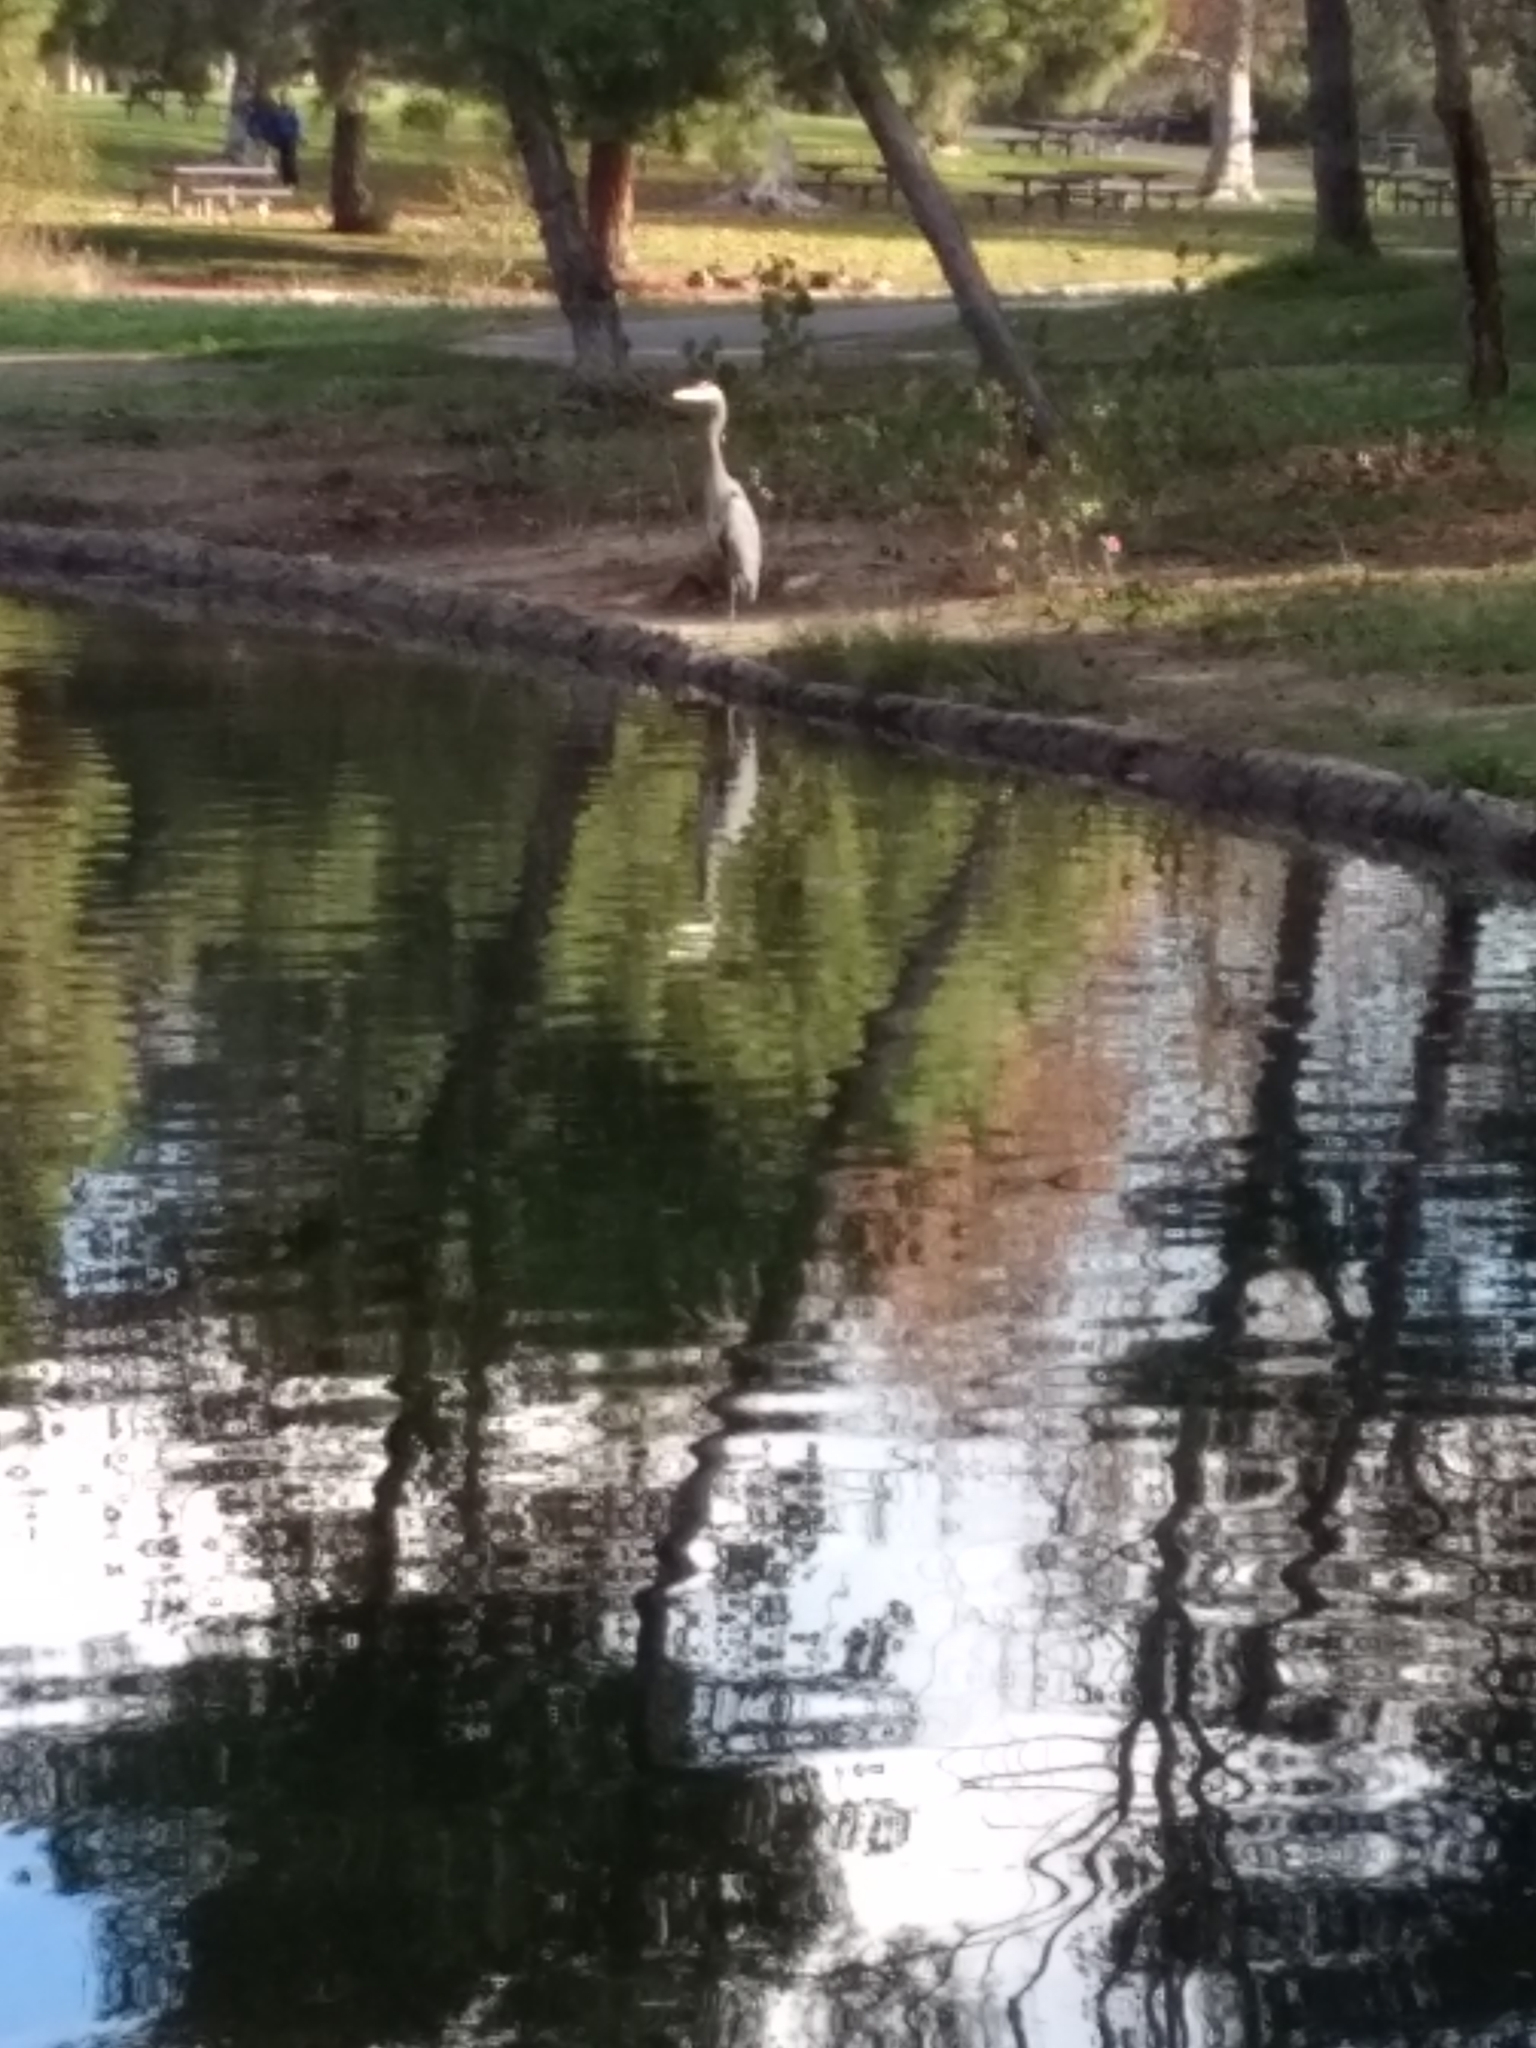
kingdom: Animalia
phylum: Chordata
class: Aves
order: Pelecaniformes
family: Ardeidae
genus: Ardea
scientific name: Ardea herodias
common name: Great blue heron
